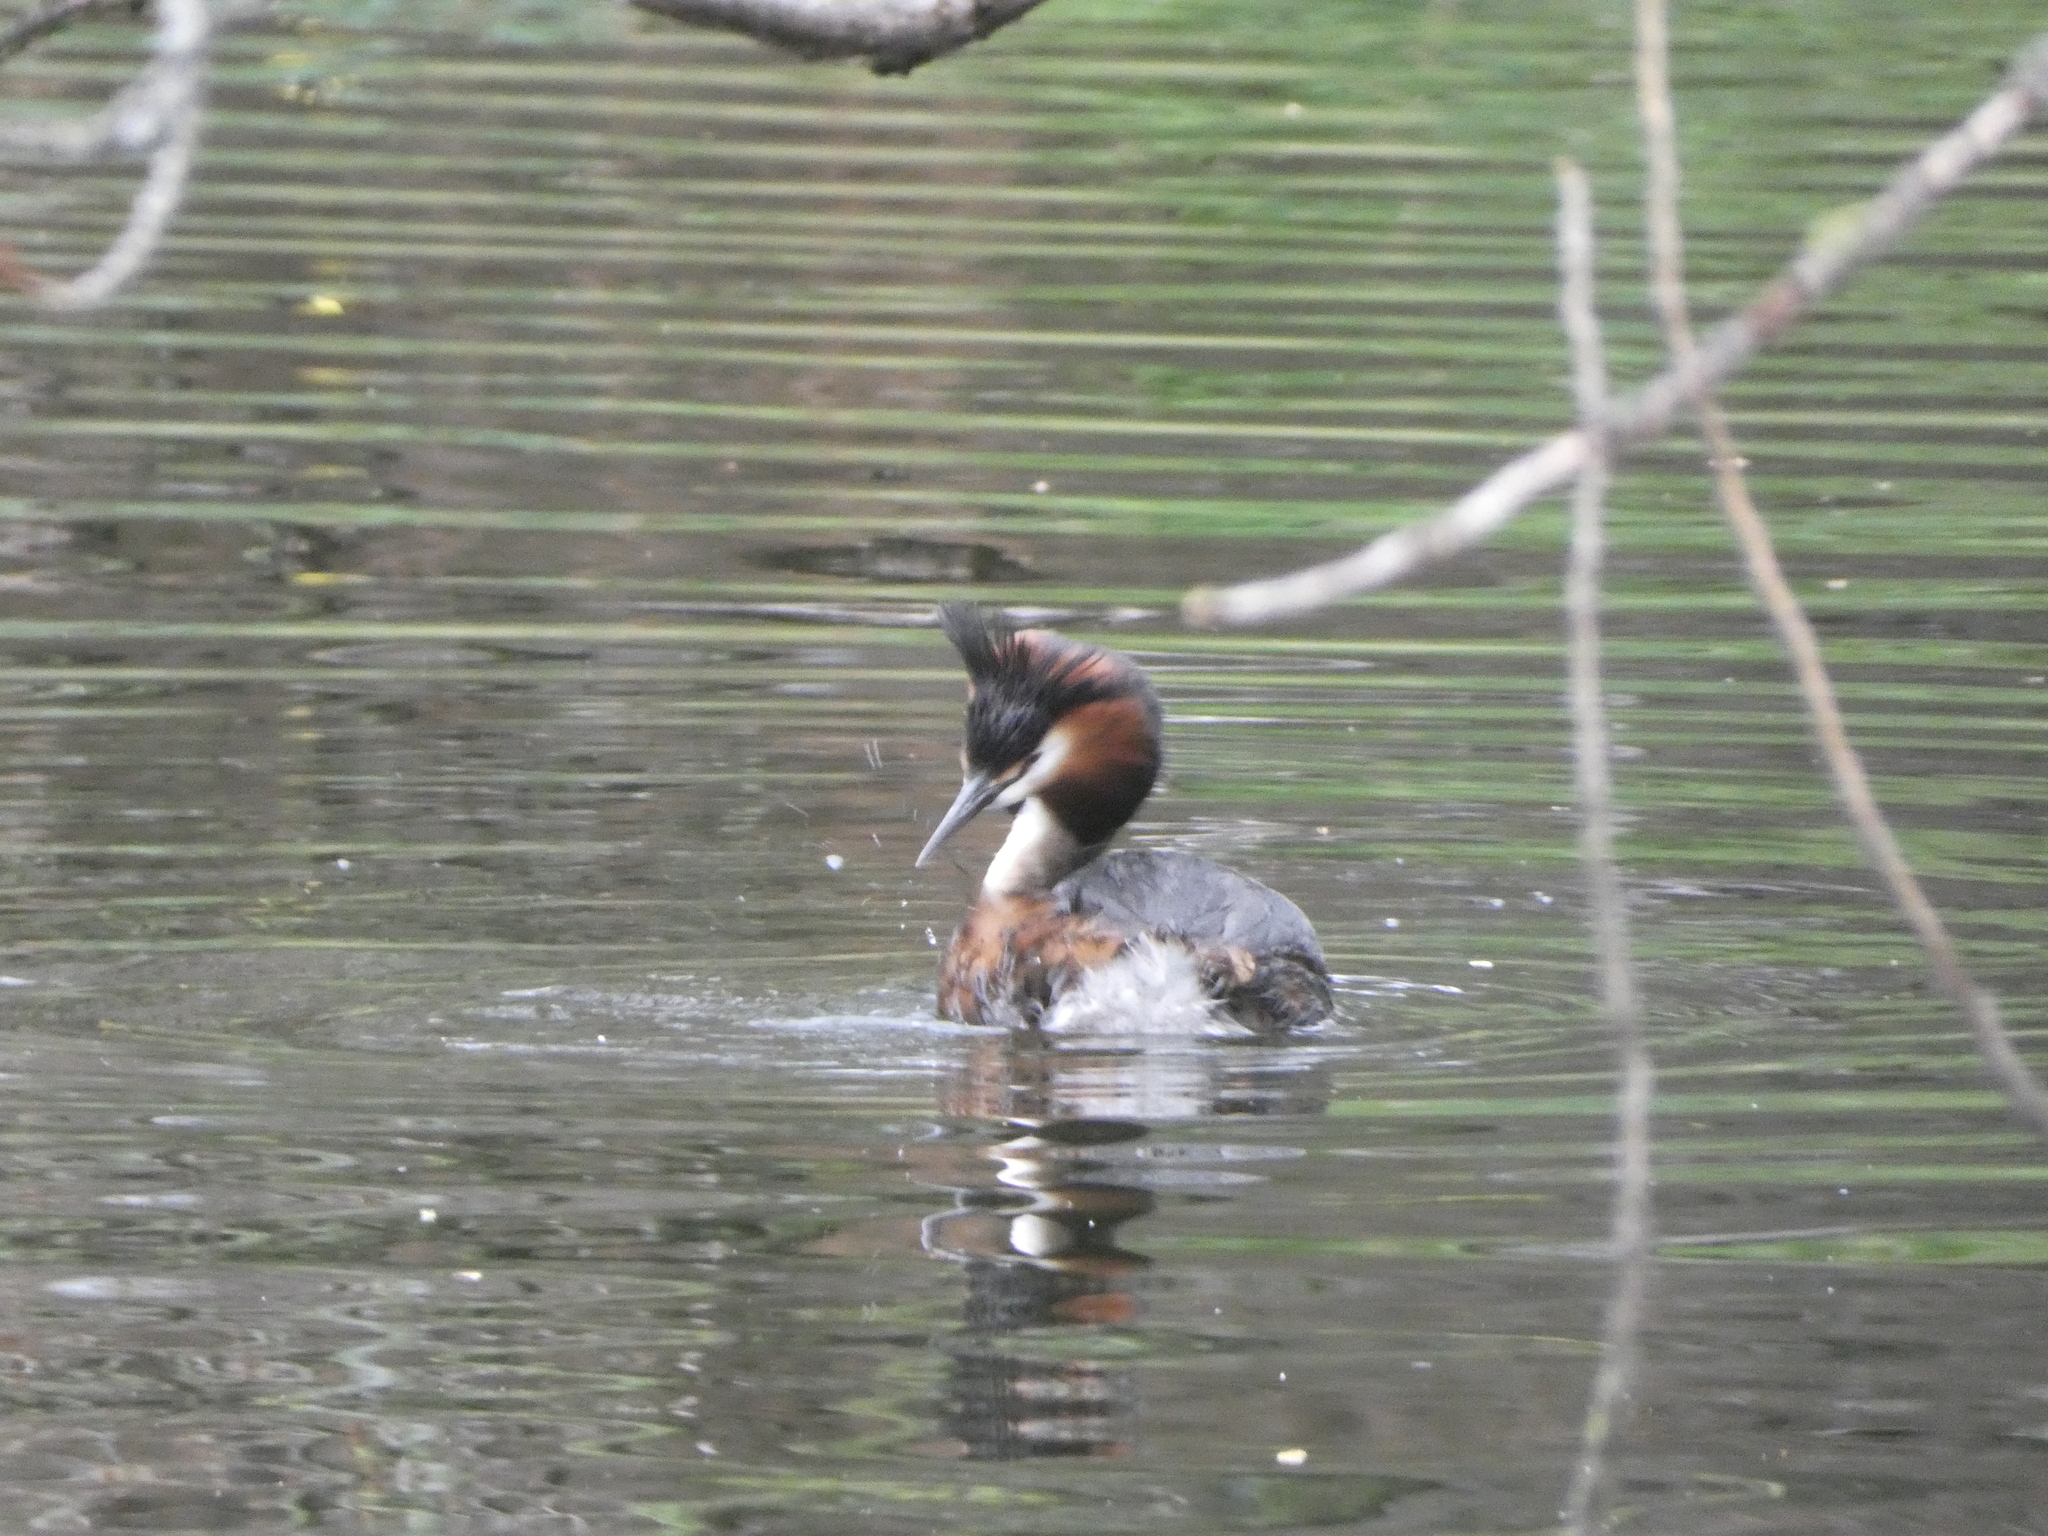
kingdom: Animalia
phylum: Chordata
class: Aves
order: Podicipediformes
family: Podicipedidae
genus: Podiceps
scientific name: Podiceps cristatus
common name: Great crested grebe
